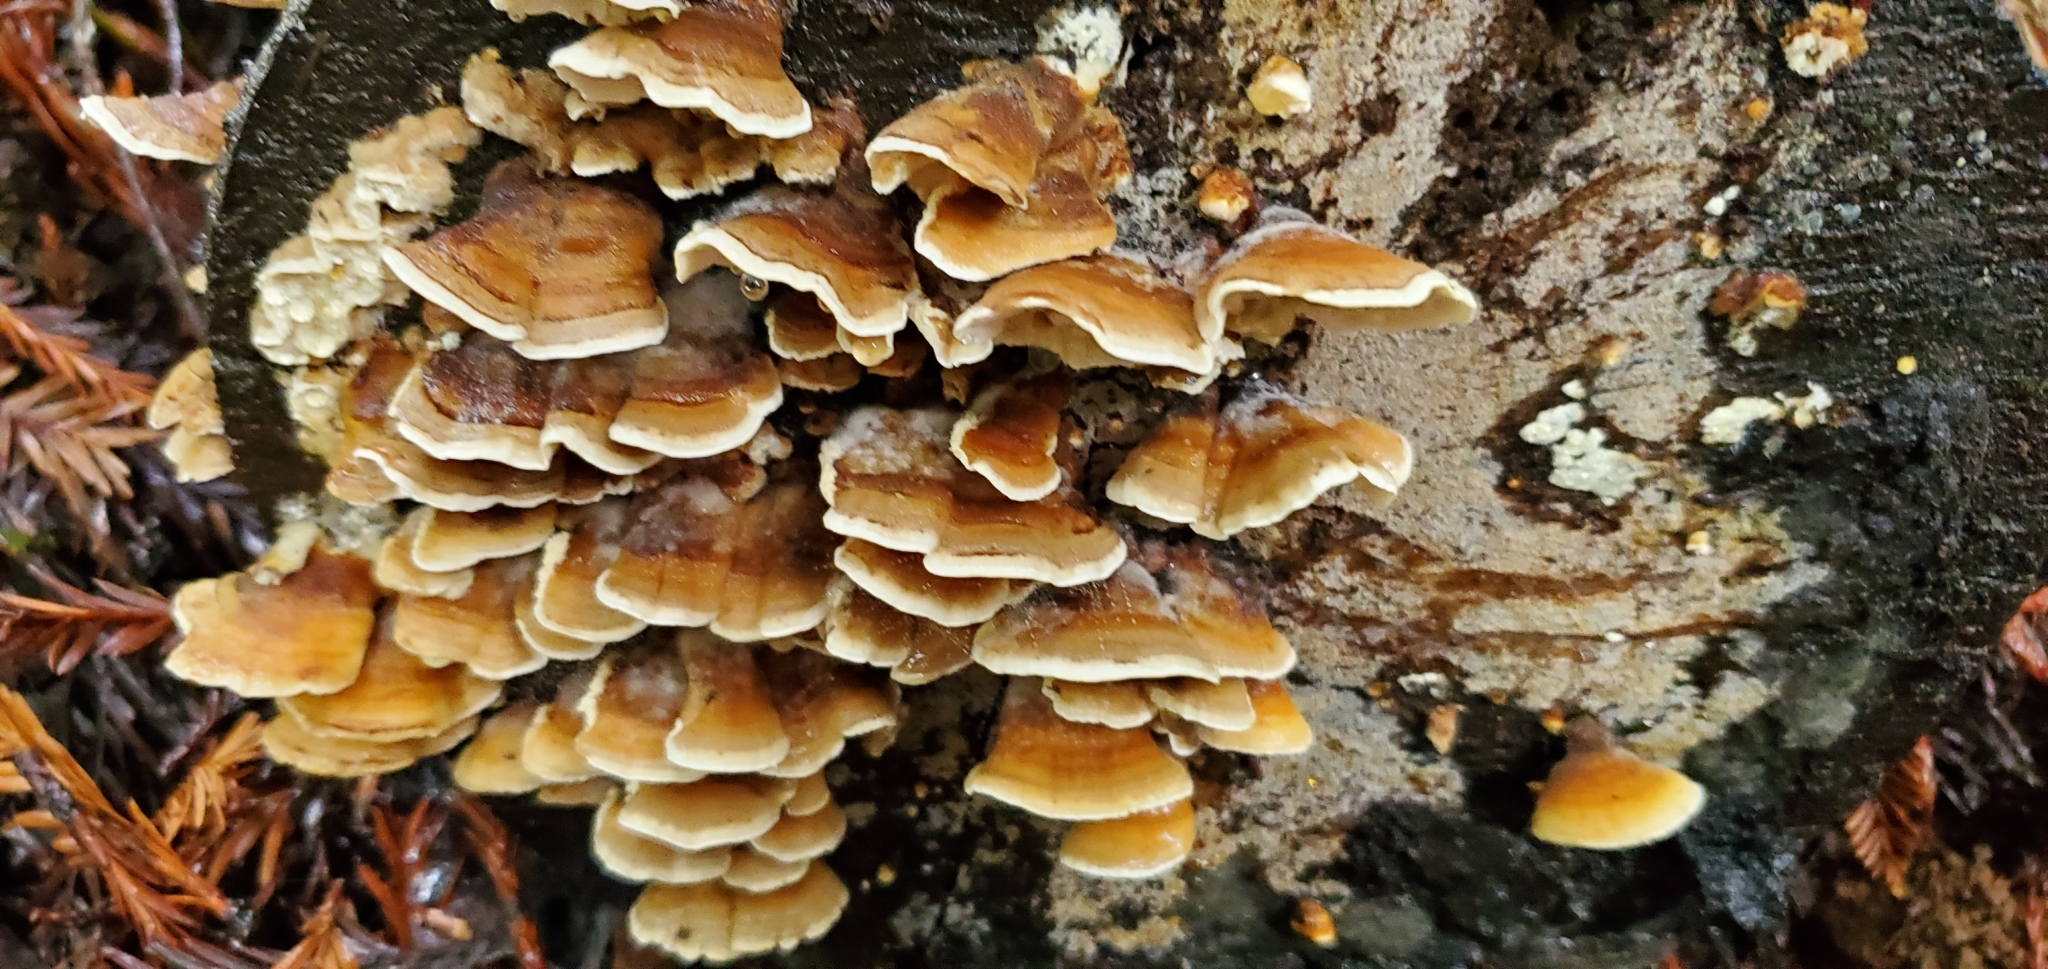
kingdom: Fungi
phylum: Basidiomycota
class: Agaricomycetes
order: Russulales
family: Stereaceae
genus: Stereum
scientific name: Stereum hirsutum
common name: Hairy curtain crust
